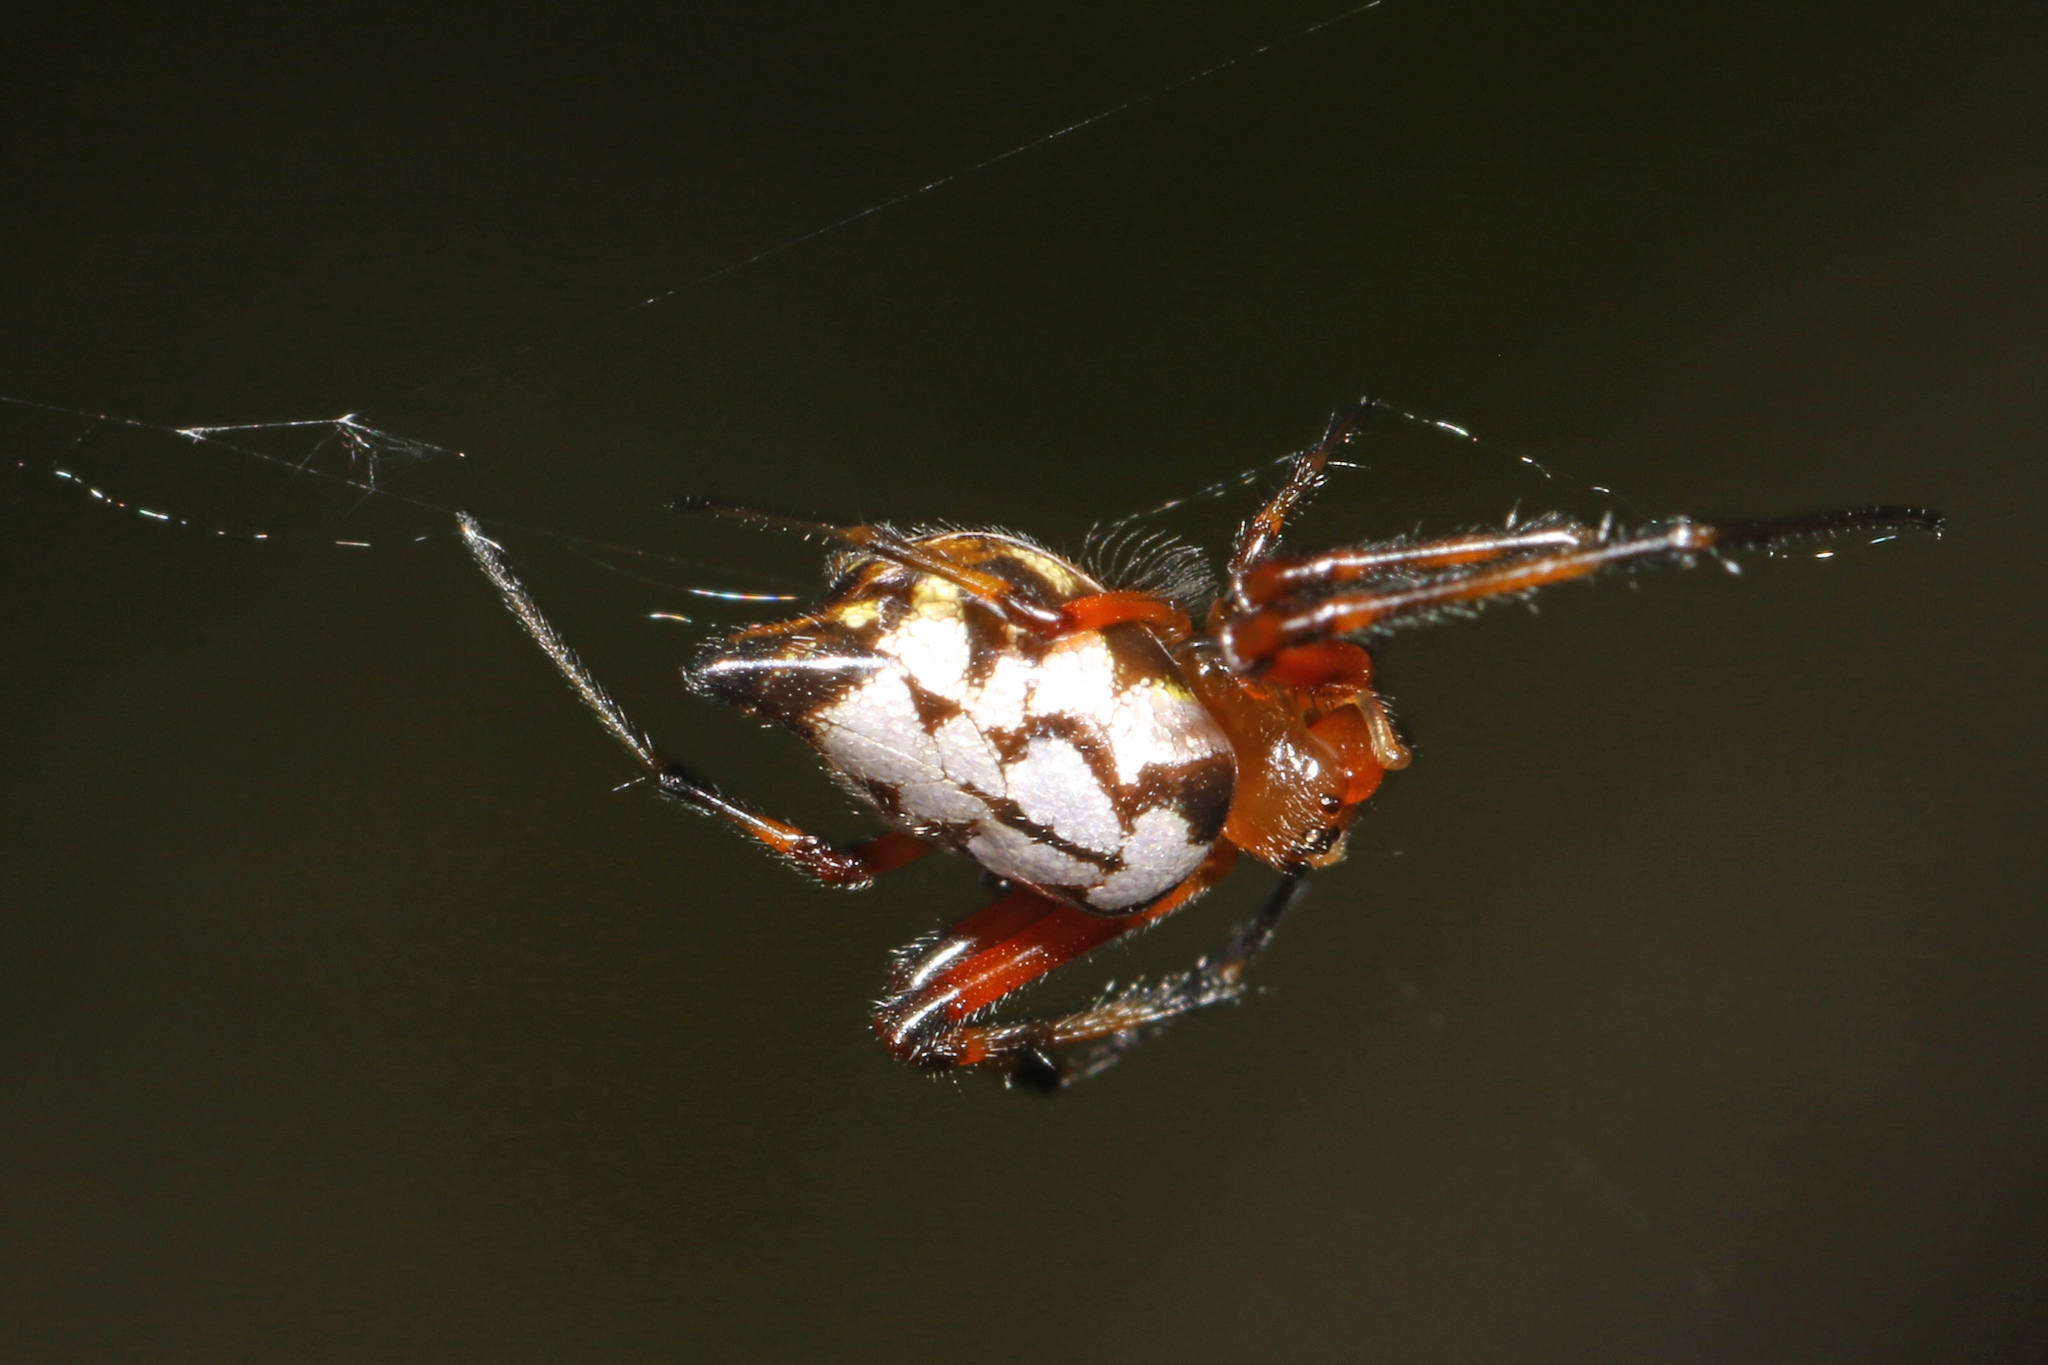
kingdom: Animalia
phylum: Arthropoda
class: Arachnida
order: Araneae
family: Tetragnathidae
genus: Leucauge
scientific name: Leucauge medjensis
